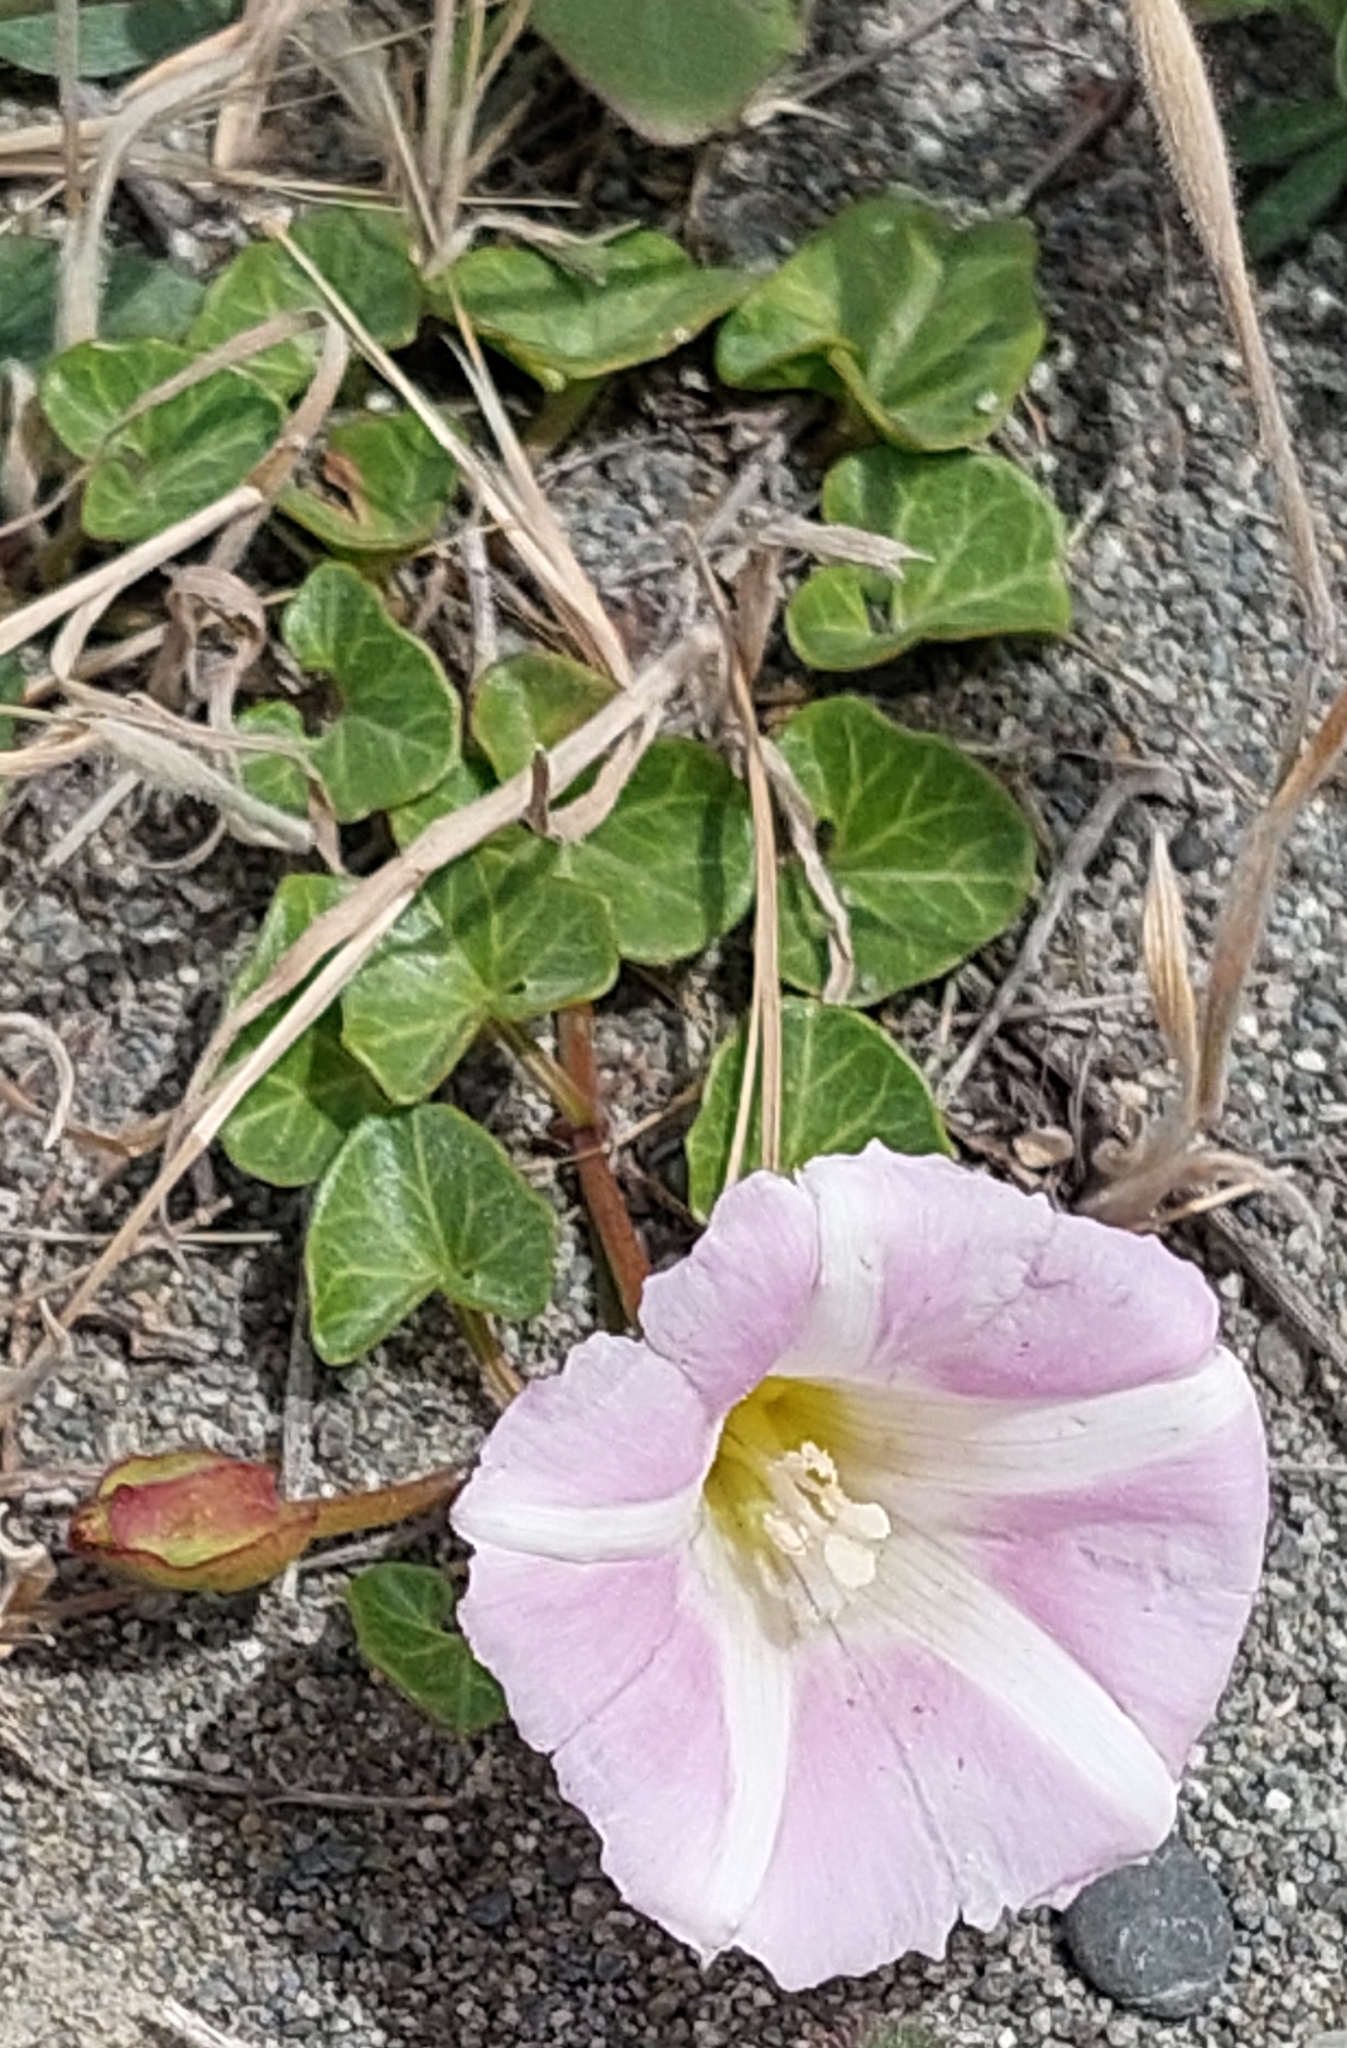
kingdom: Plantae
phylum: Tracheophyta
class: Magnoliopsida
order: Solanales
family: Convolvulaceae
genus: Calystegia
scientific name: Calystegia soldanella
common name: Sea bindweed
